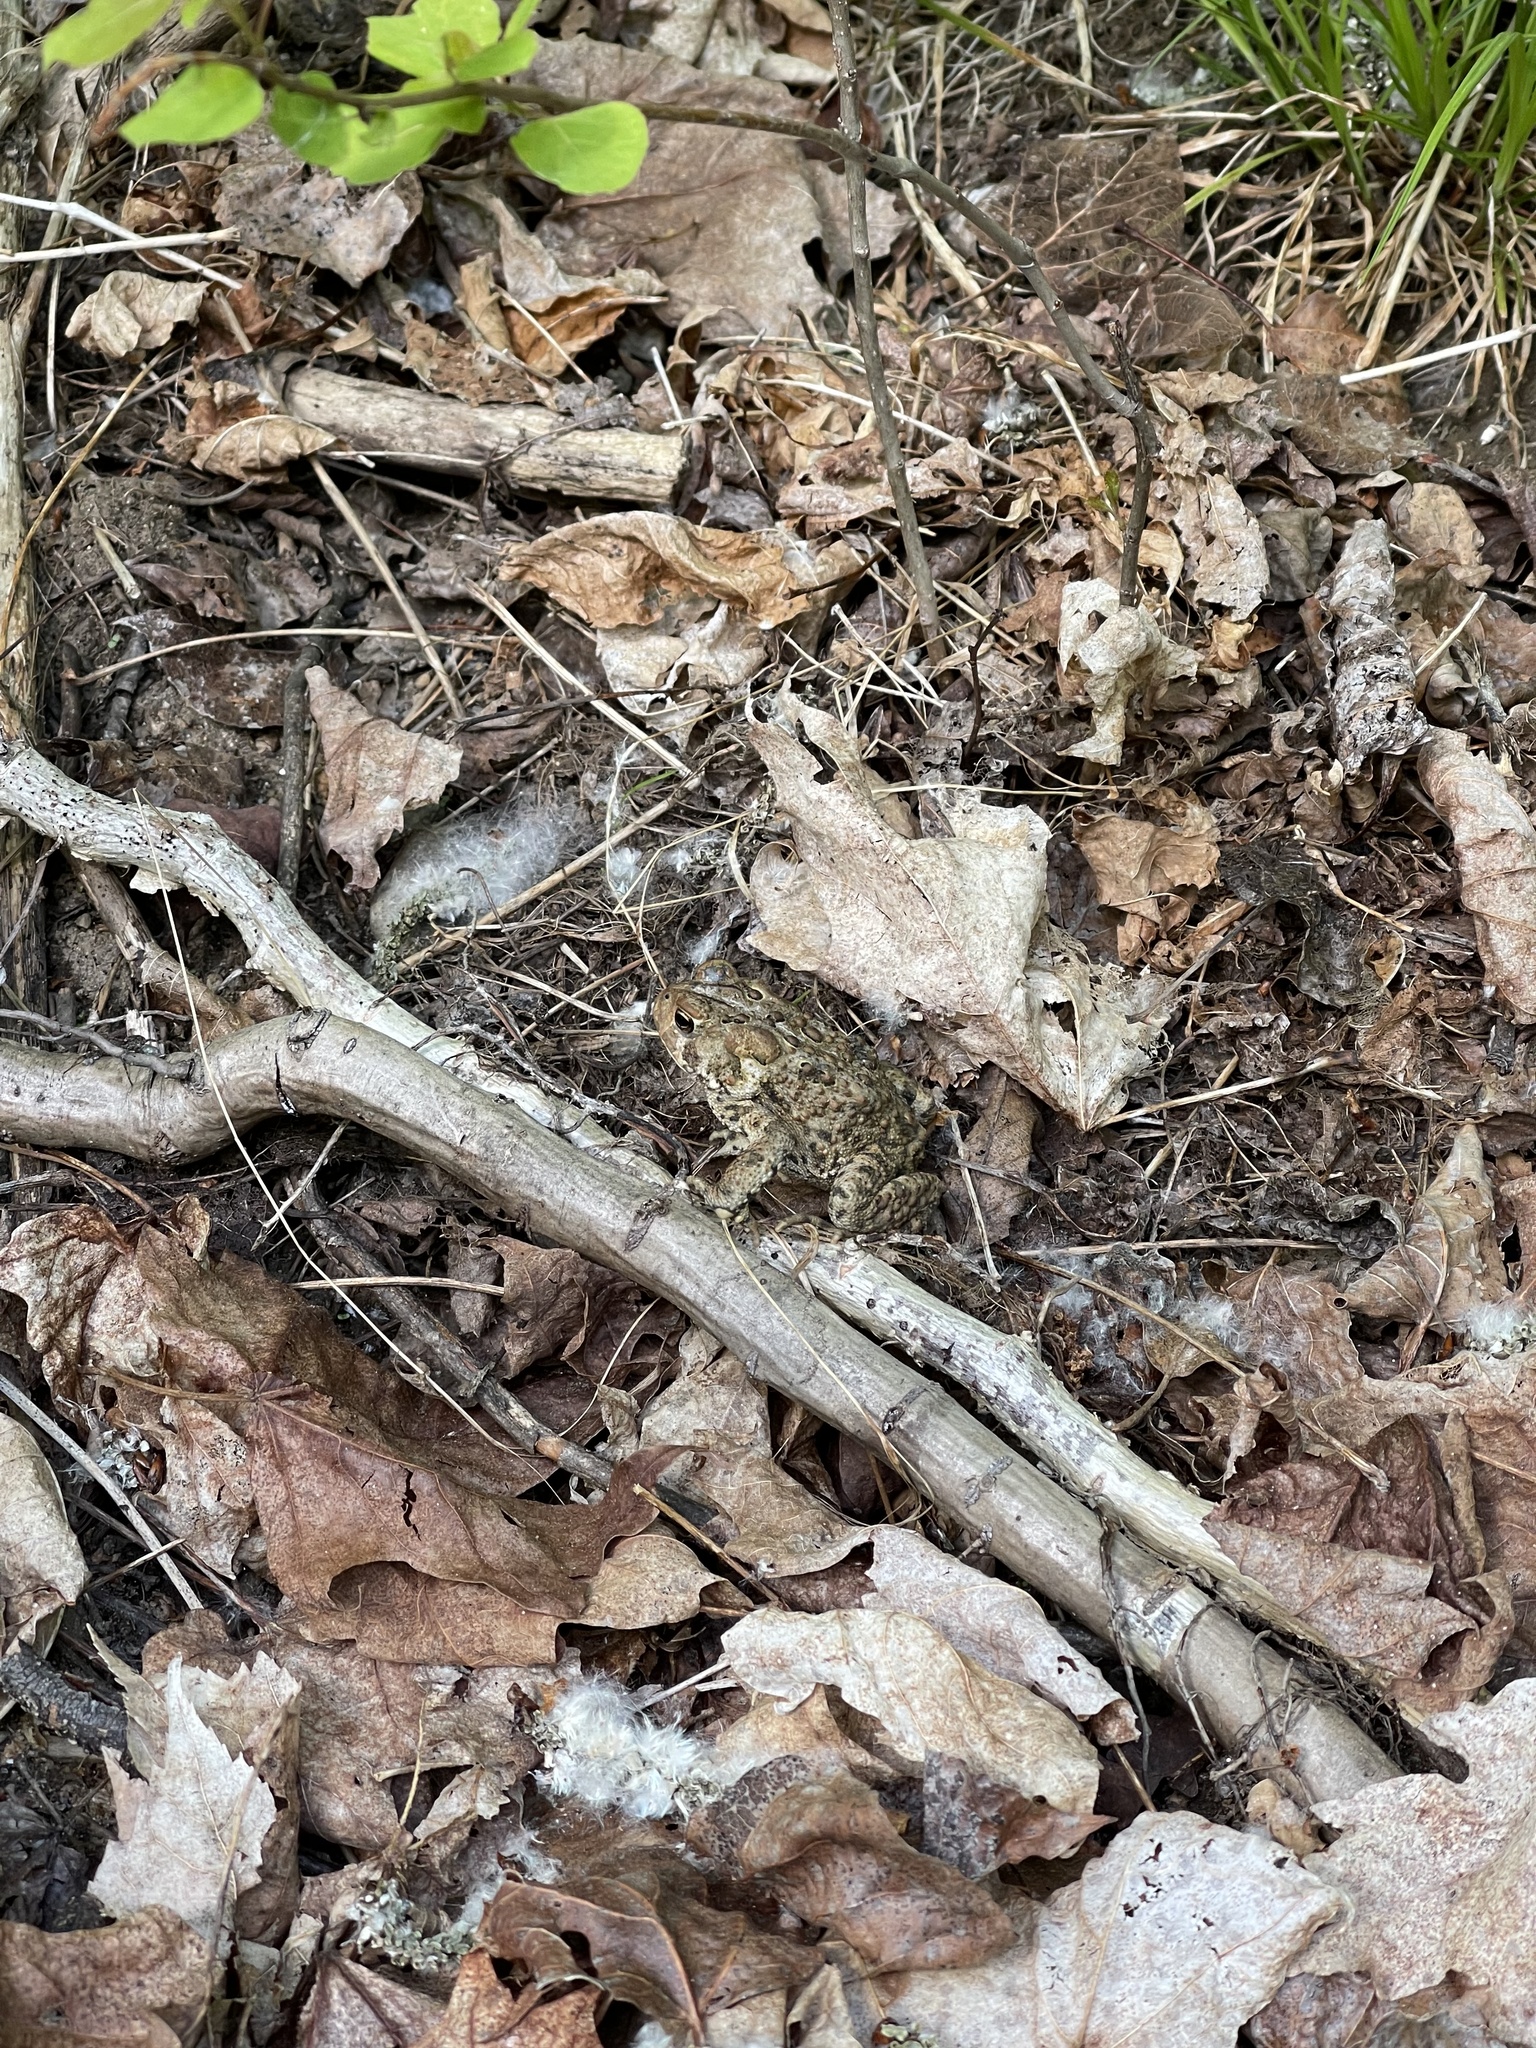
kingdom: Animalia
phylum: Chordata
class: Amphibia
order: Anura
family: Bufonidae
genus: Anaxyrus
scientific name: Anaxyrus americanus
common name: American toad
